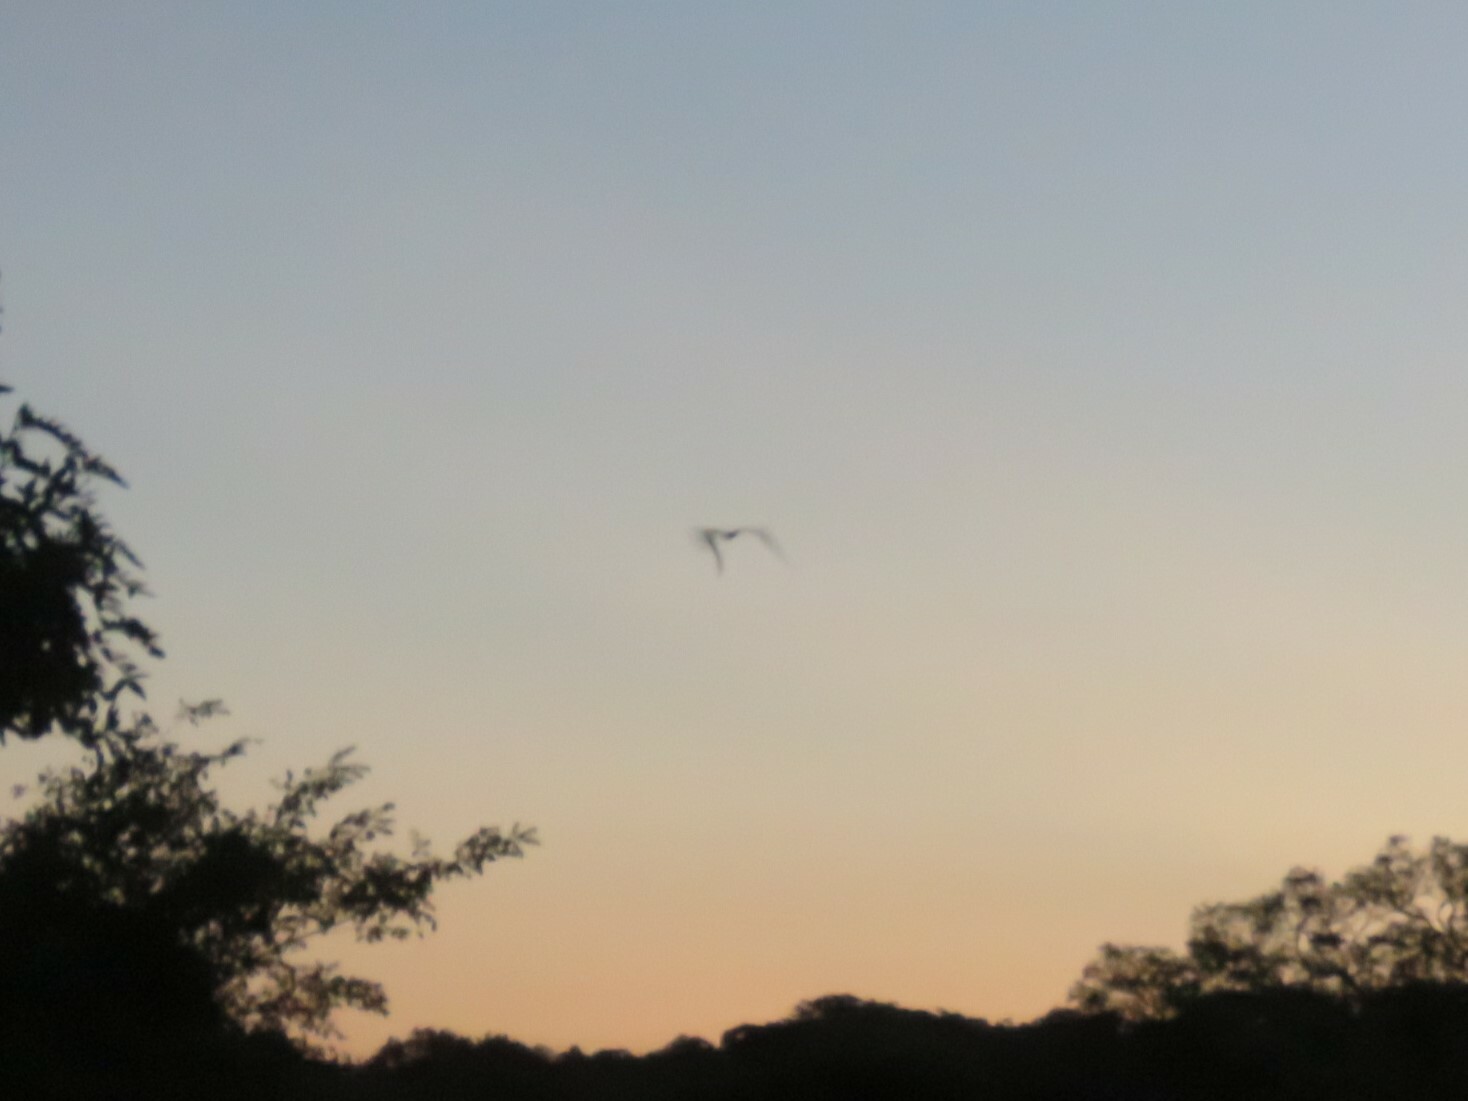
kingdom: Animalia
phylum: Chordata
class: Aves
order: Caprimulgiformes
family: Caprimulgidae
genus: Caprimulgus
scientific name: Caprimulgus vexillarius
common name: Pennant-winged nightjar
